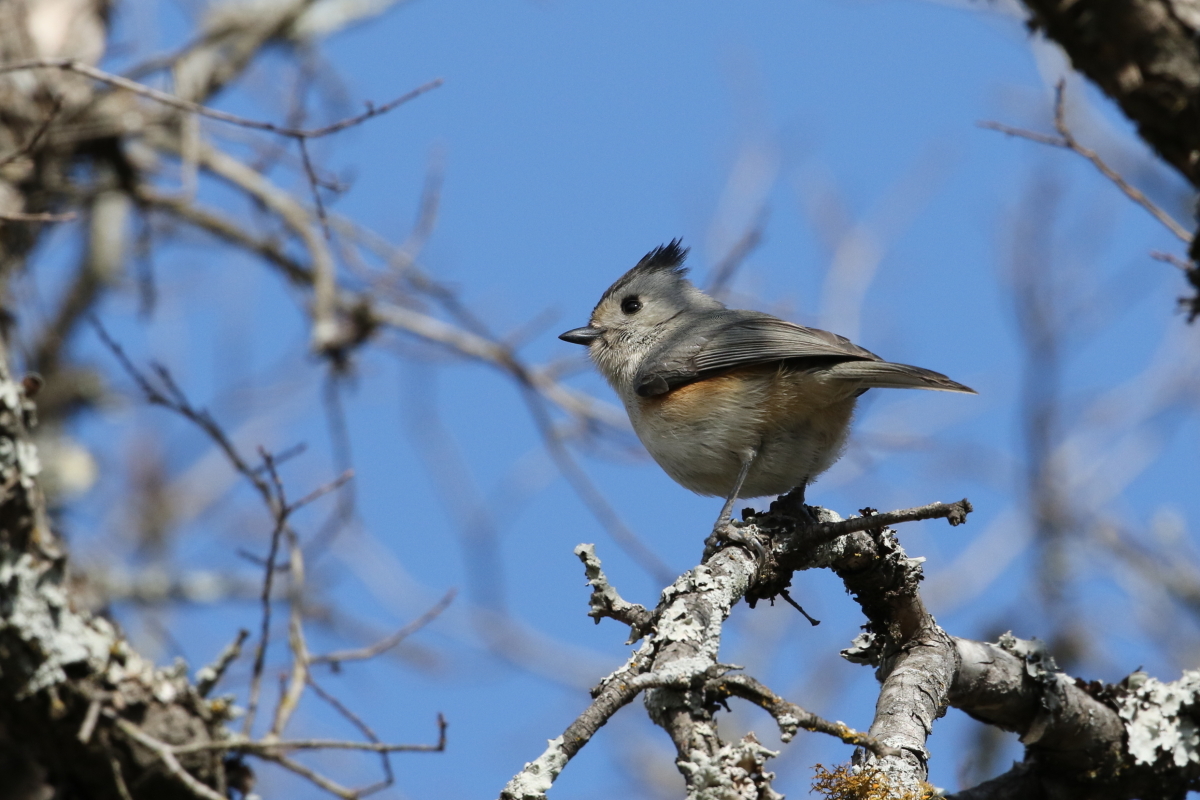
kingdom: Animalia
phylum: Chordata
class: Aves
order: Passeriformes
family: Paridae
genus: Baeolophus
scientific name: Baeolophus atricristatus
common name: Black-crested titmouse
